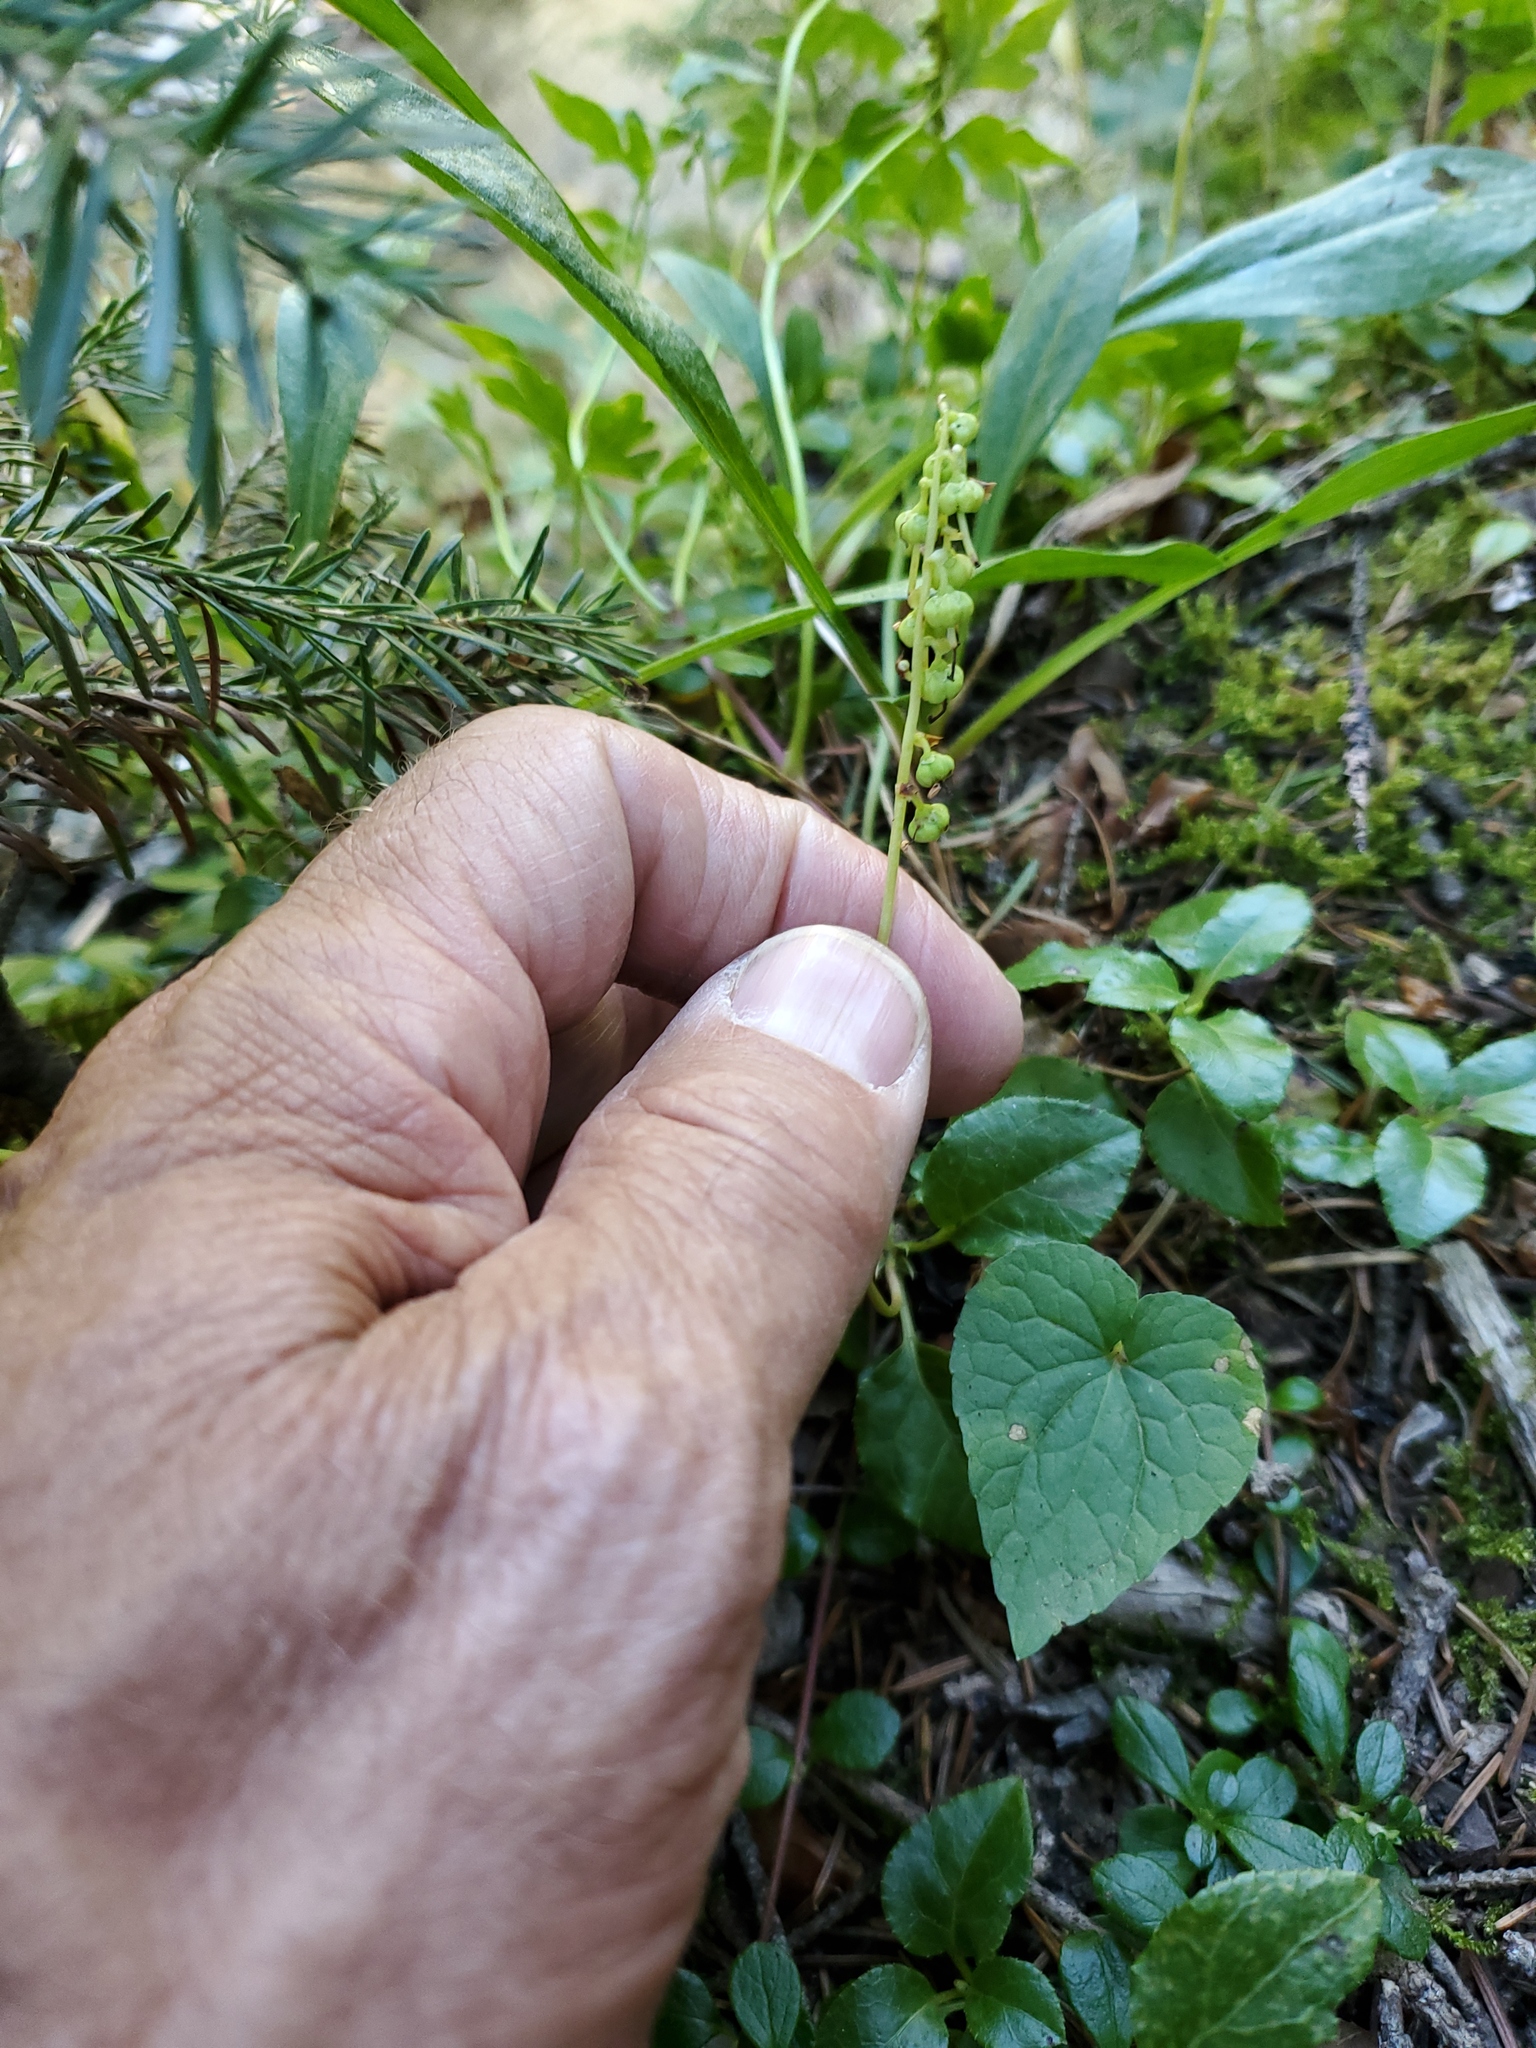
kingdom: Plantae
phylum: Tracheophyta
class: Magnoliopsida
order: Ericales
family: Ericaceae
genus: Orthilia
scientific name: Orthilia secunda
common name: One-sided orthilia
